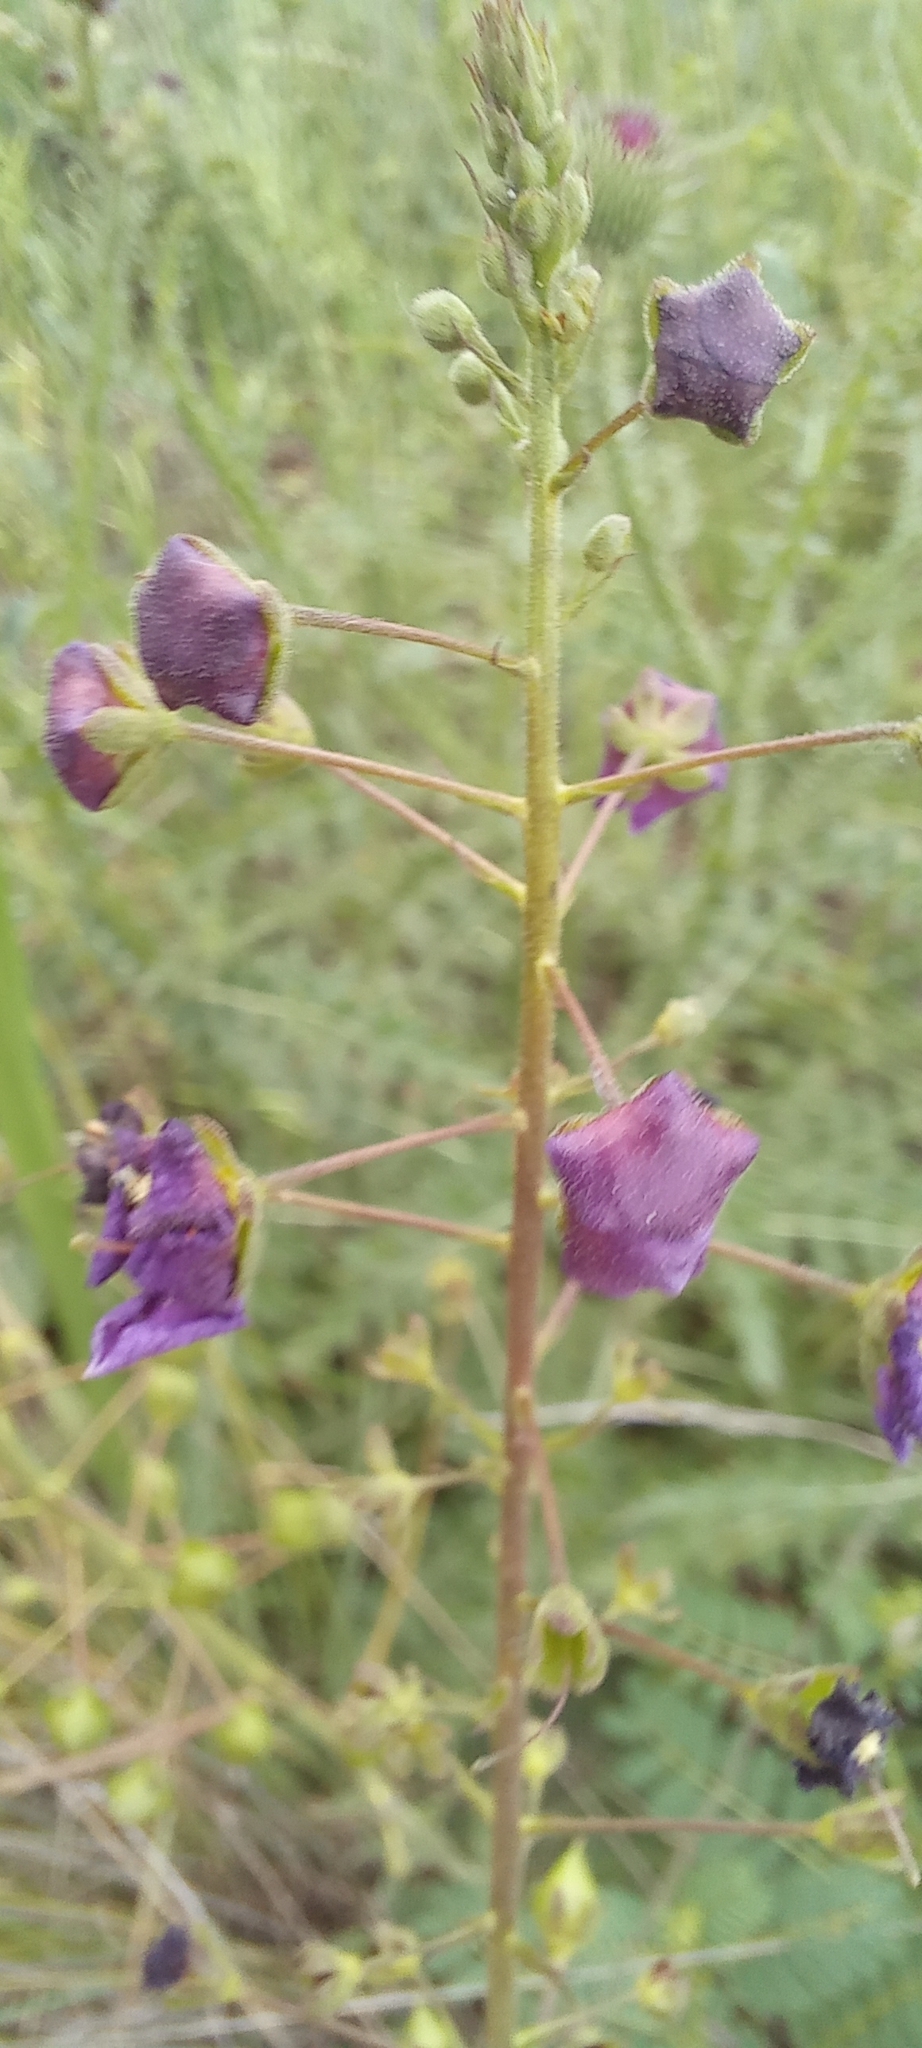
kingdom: Plantae
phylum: Tracheophyta
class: Magnoliopsida
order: Lamiales
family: Scrophulariaceae
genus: Verbascum
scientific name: Verbascum phoeniceum
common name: Purple mullein
